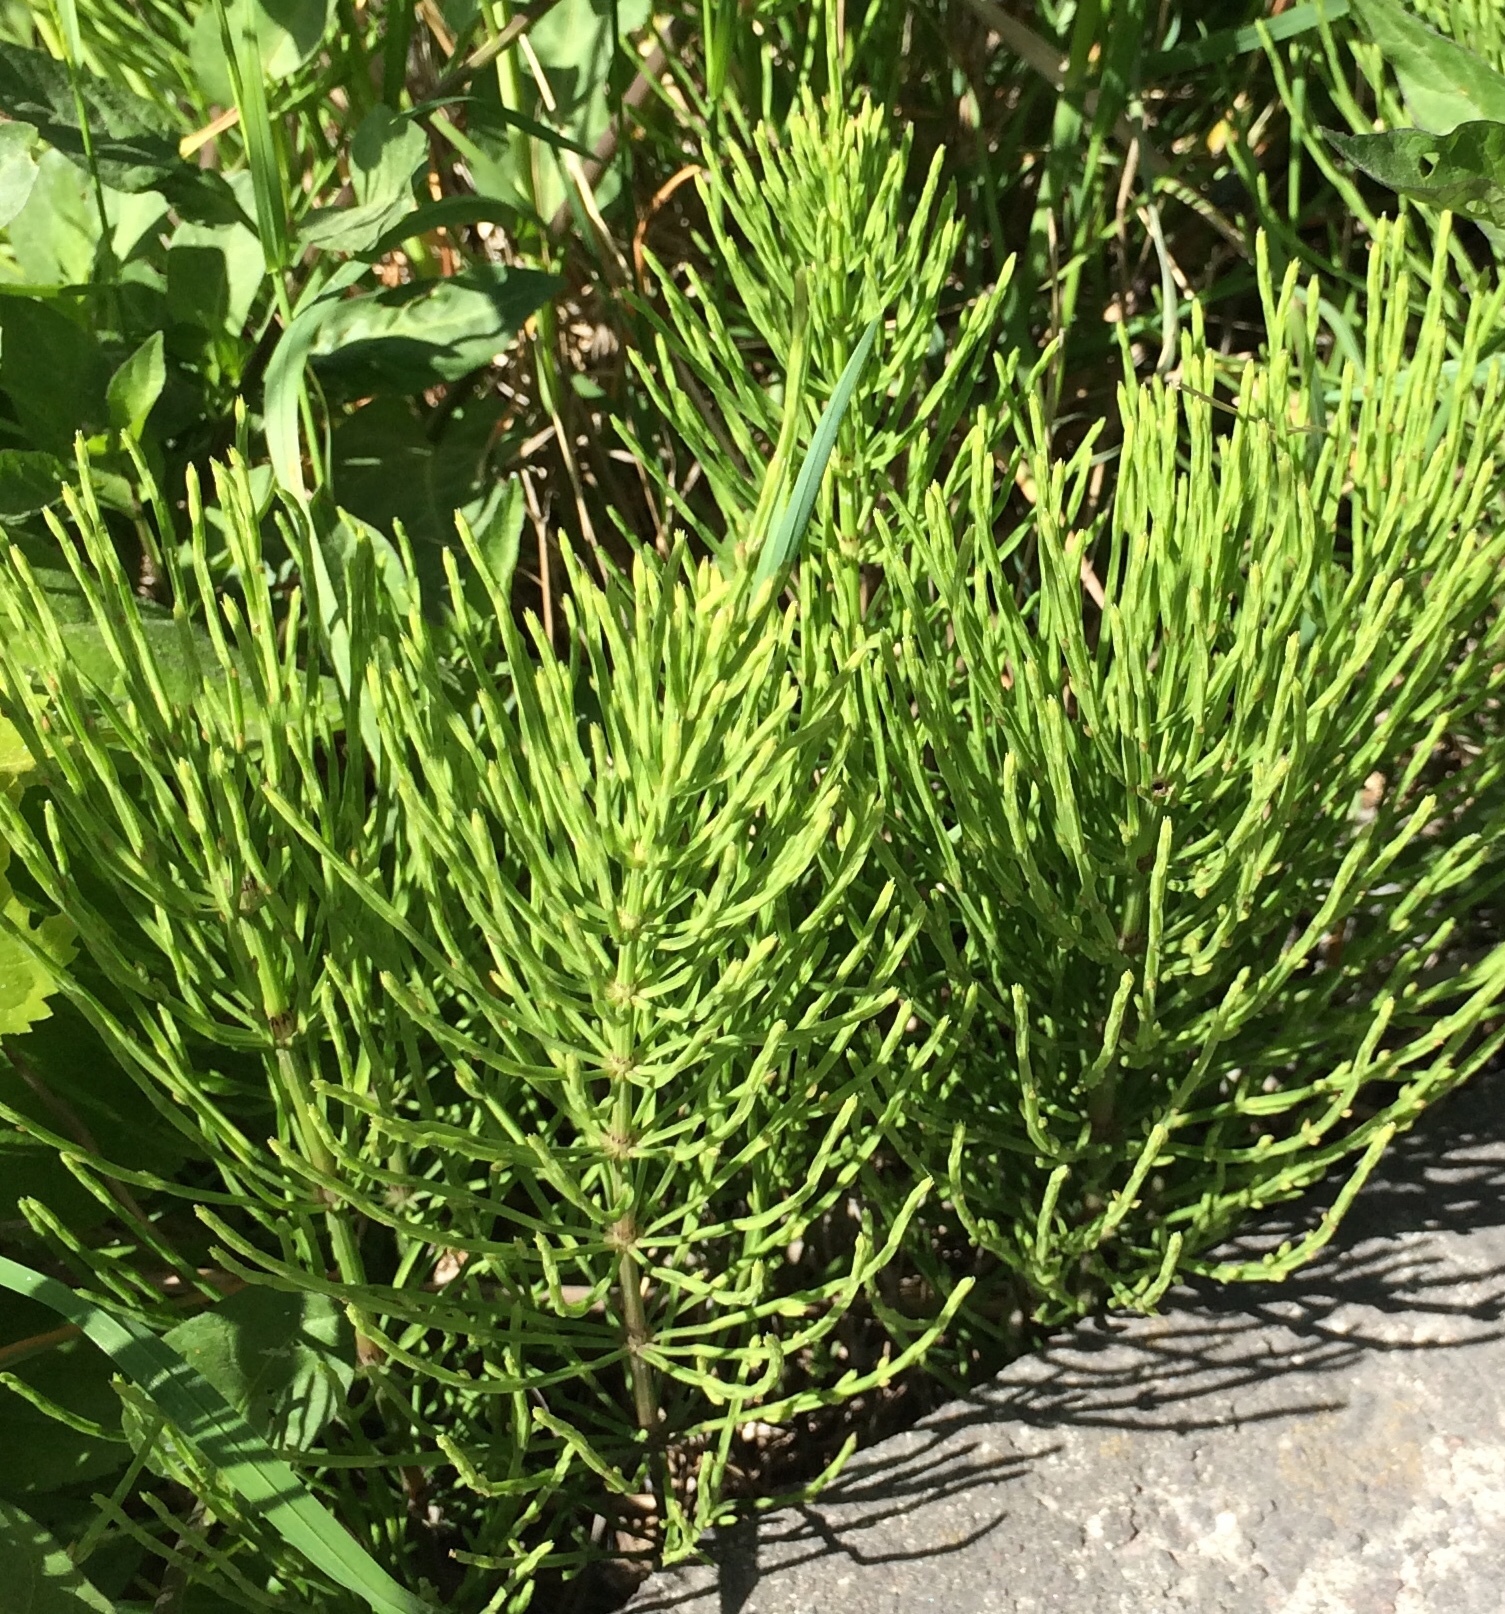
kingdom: Plantae
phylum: Tracheophyta
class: Polypodiopsida
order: Equisetales
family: Equisetaceae
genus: Equisetum
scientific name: Equisetum arvense
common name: Field horsetail
